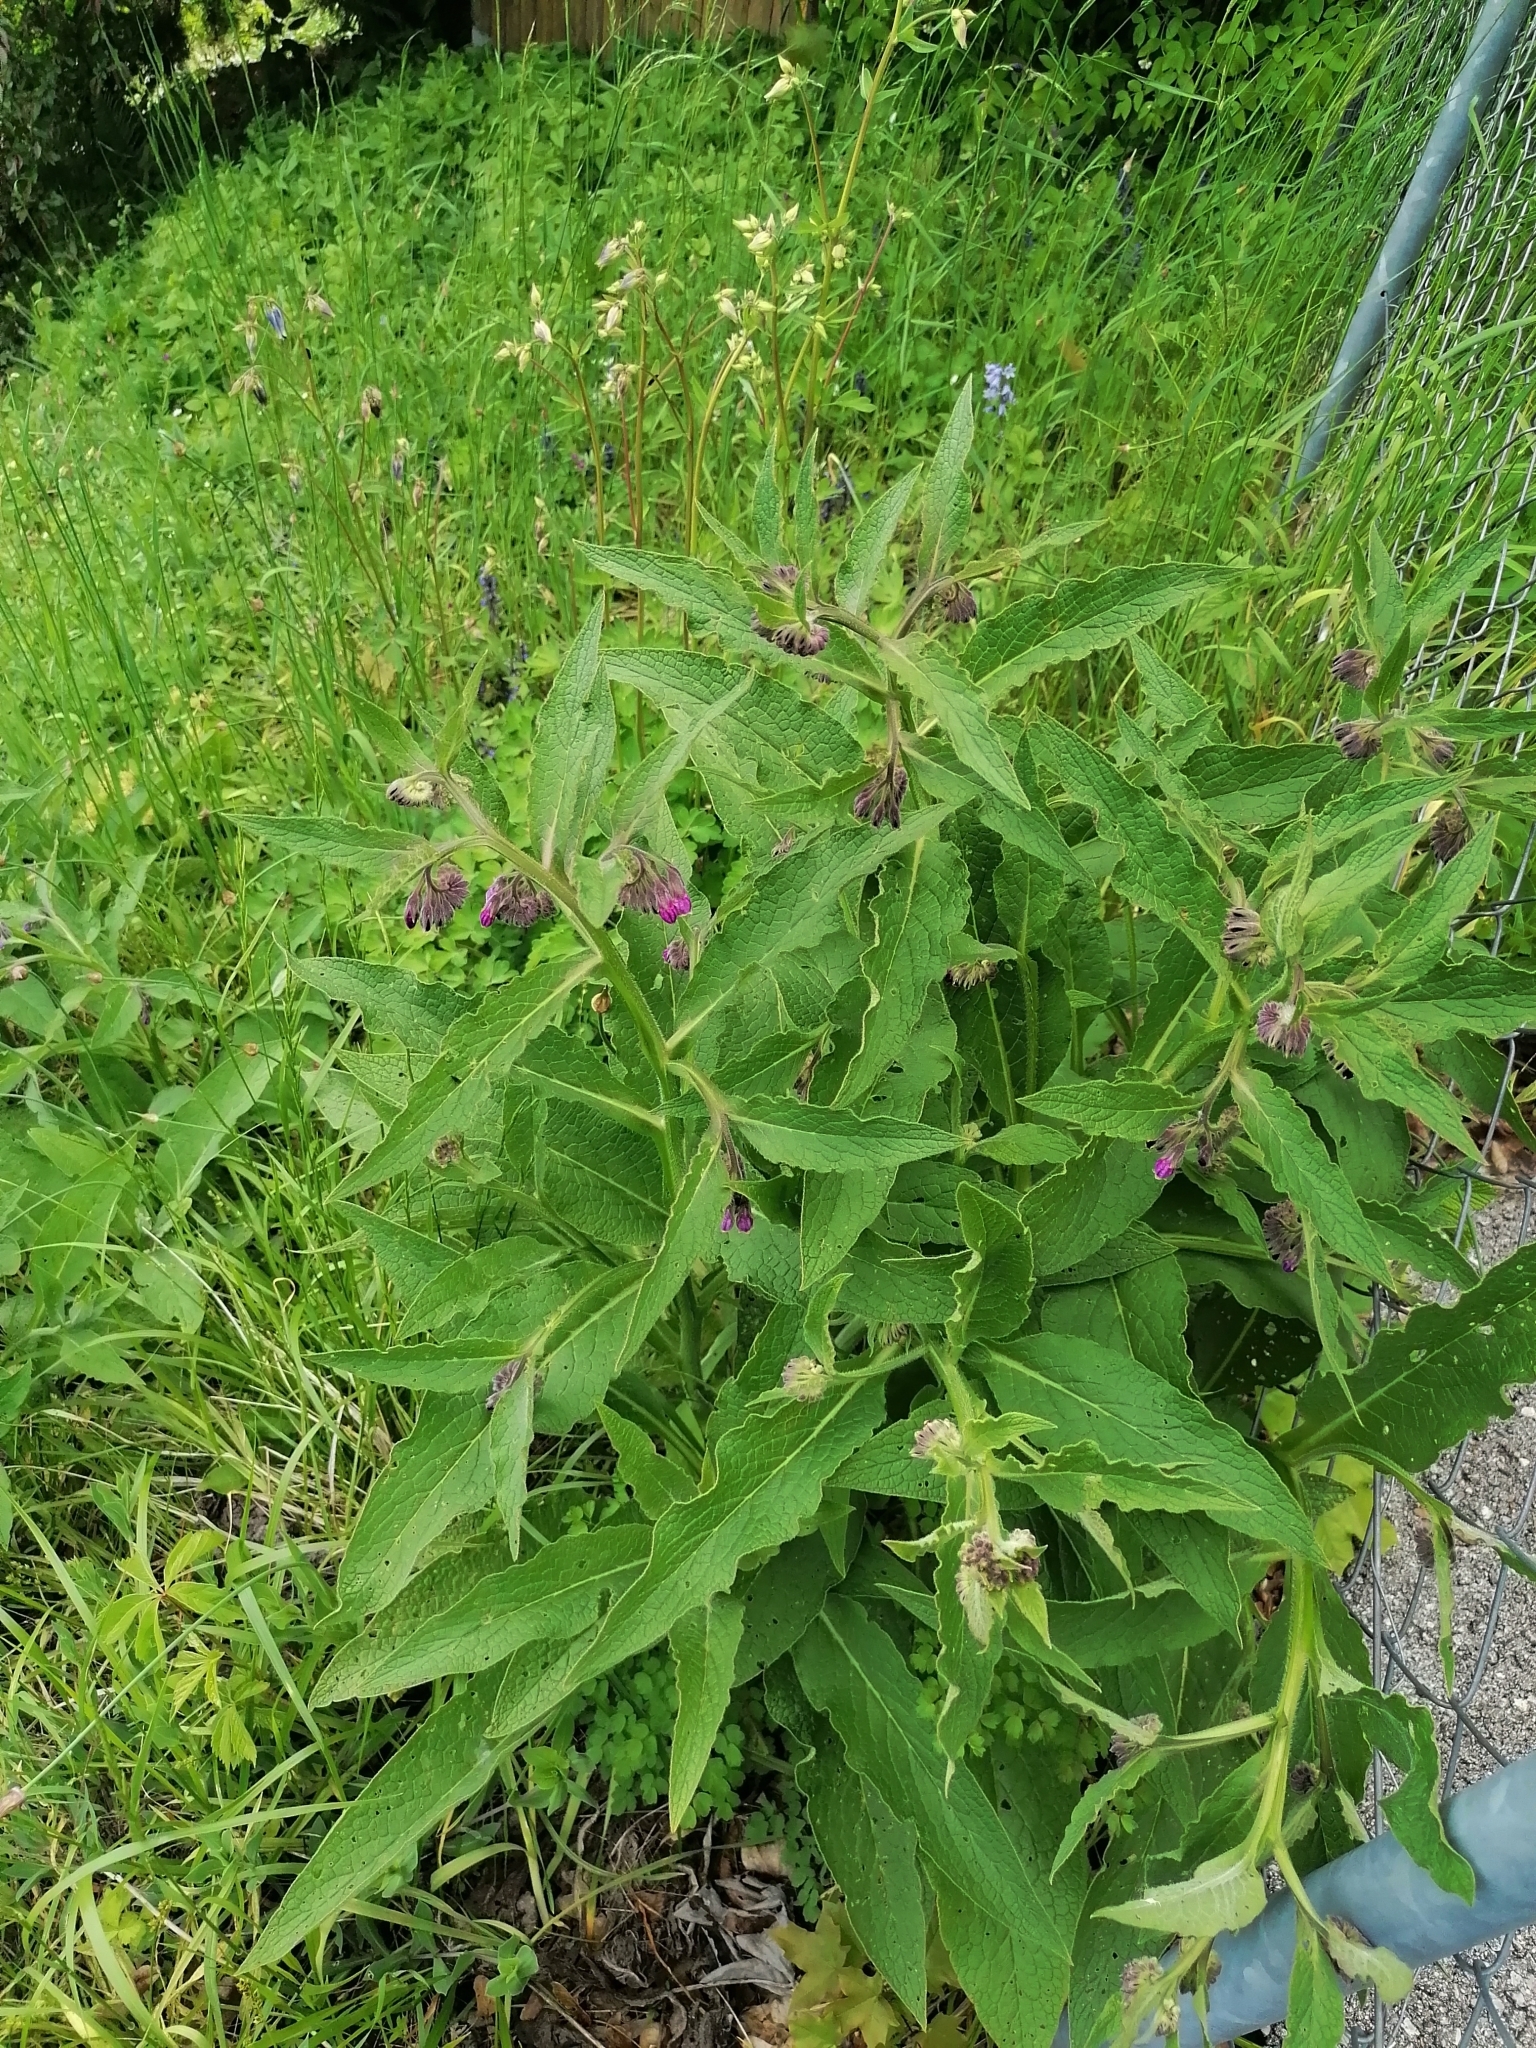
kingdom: Plantae
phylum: Tracheophyta
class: Magnoliopsida
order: Boraginales
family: Boraginaceae
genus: Symphytum
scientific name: Symphytum officinale
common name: Common comfrey
